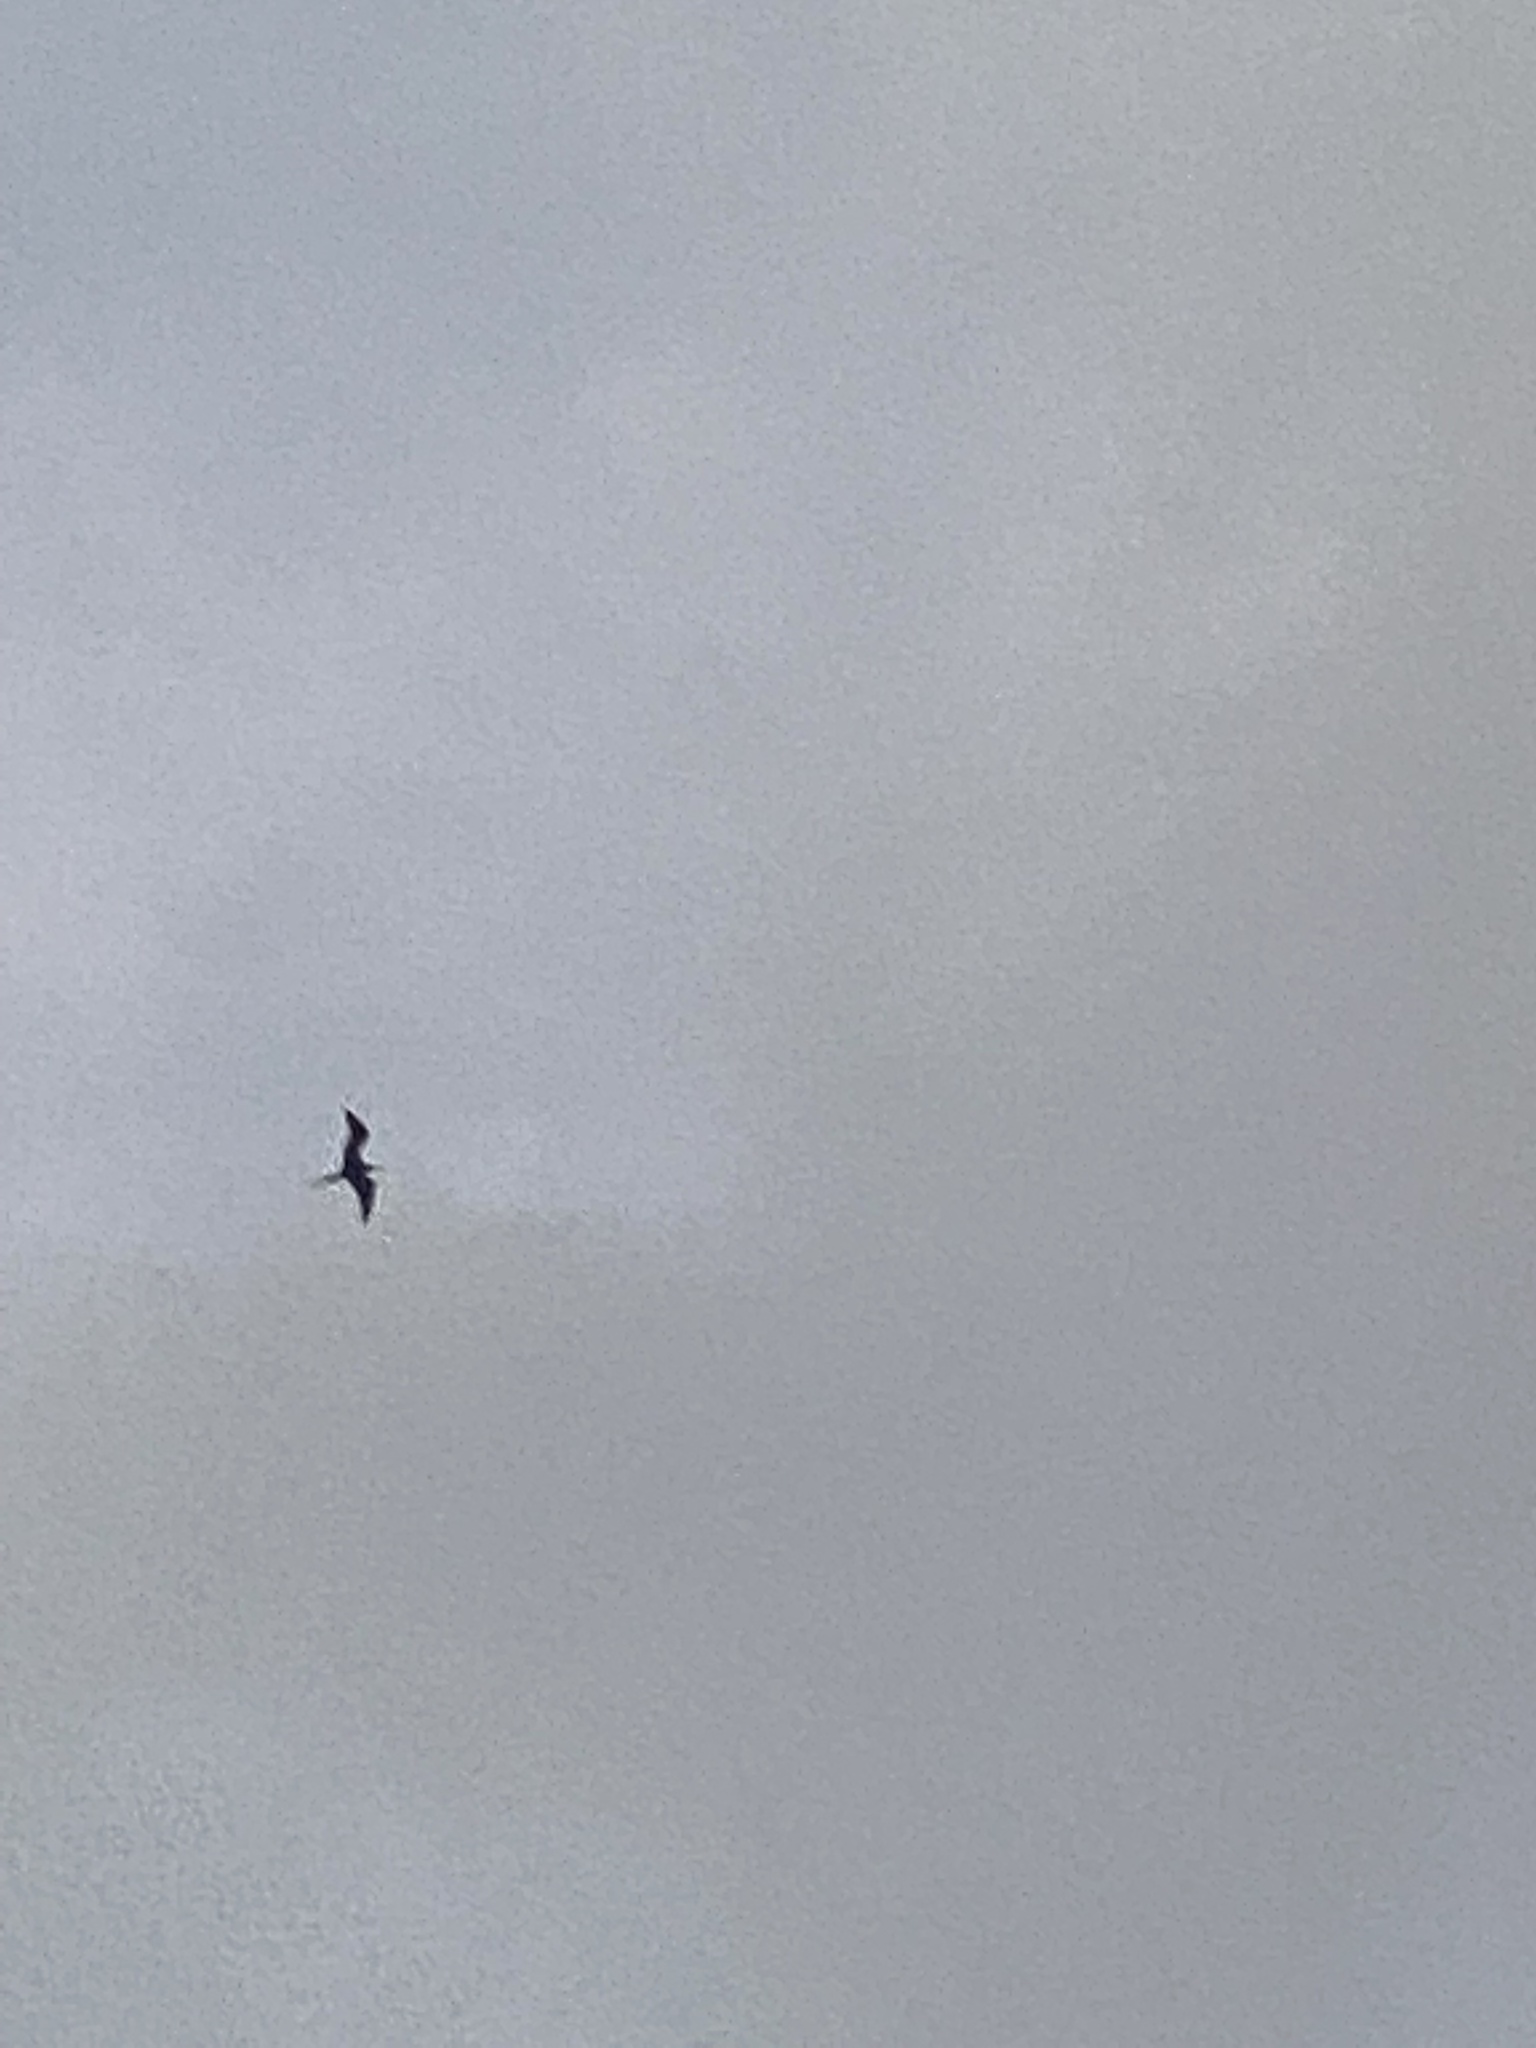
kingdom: Animalia
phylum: Chordata
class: Aves
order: Suliformes
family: Fregatidae
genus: Fregata
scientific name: Fregata magnificens
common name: Magnificent frigatebird
